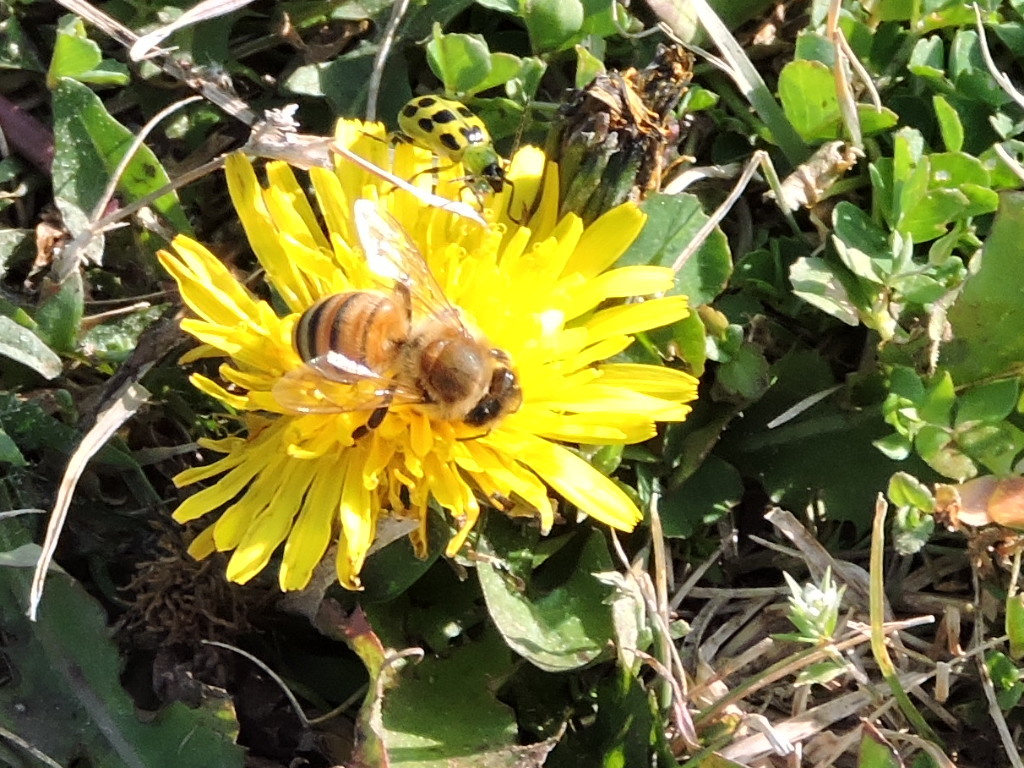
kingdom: Animalia
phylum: Arthropoda
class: Insecta
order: Hymenoptera
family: Apidae
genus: Apis
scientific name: Apis mellifera
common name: Honey bee
